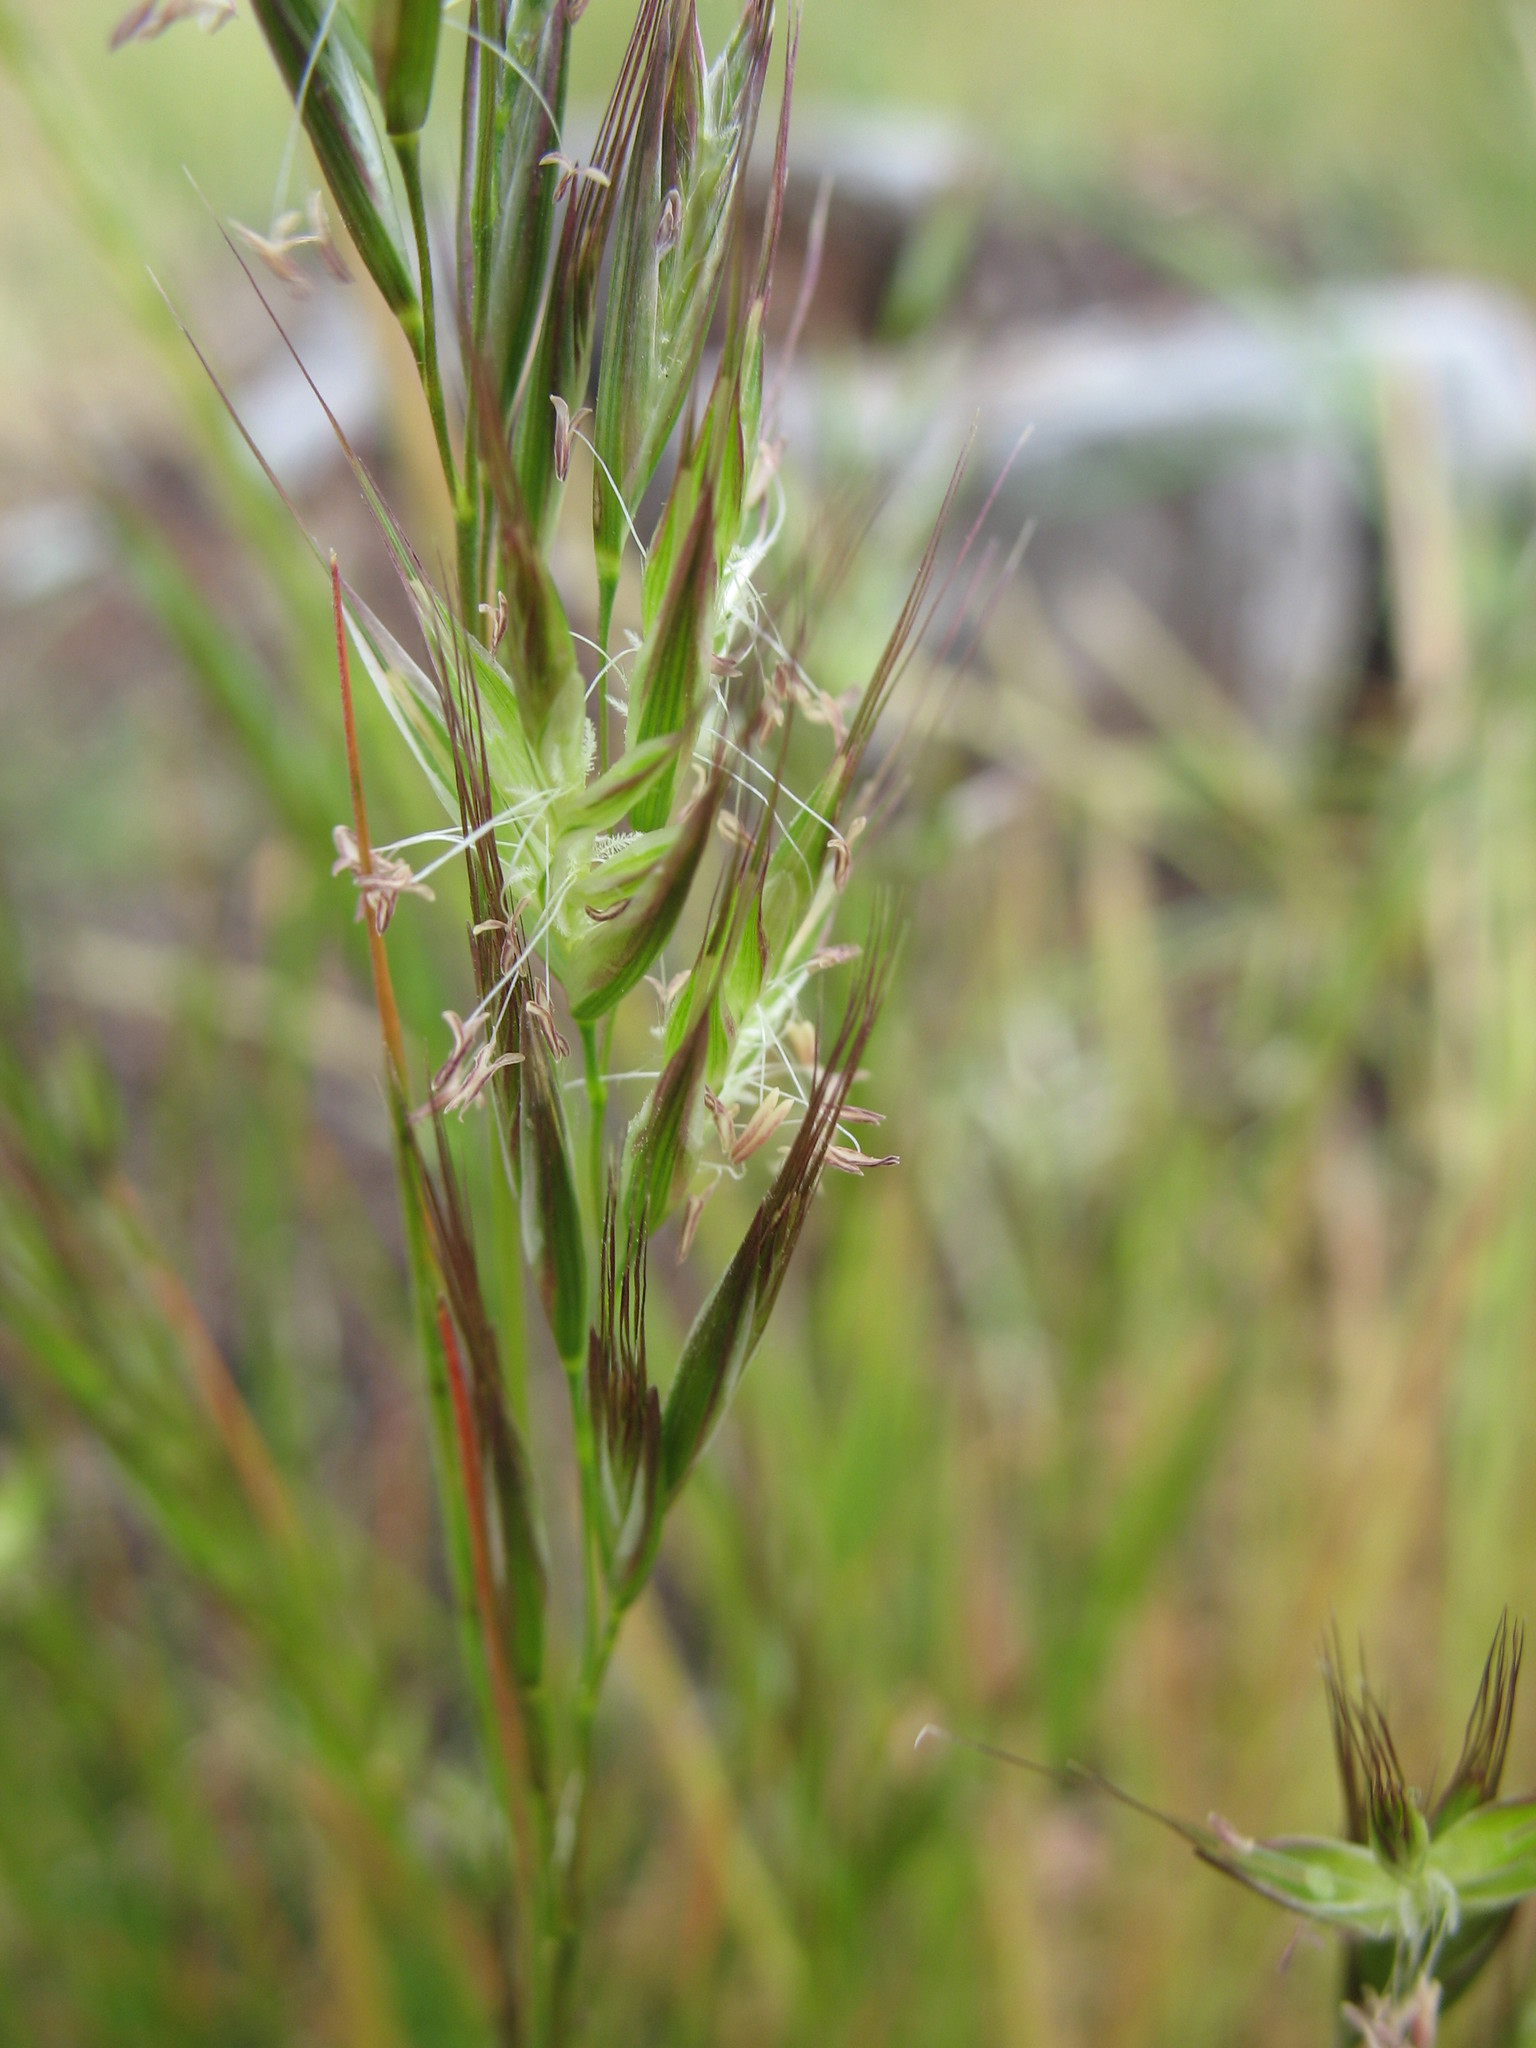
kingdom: Plantae
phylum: Tracheophyta
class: Liliopsida
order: Poales
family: Poaceae
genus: Rytidosperma
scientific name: Rytidosperma pilosum
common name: Hairy wallaby grass
